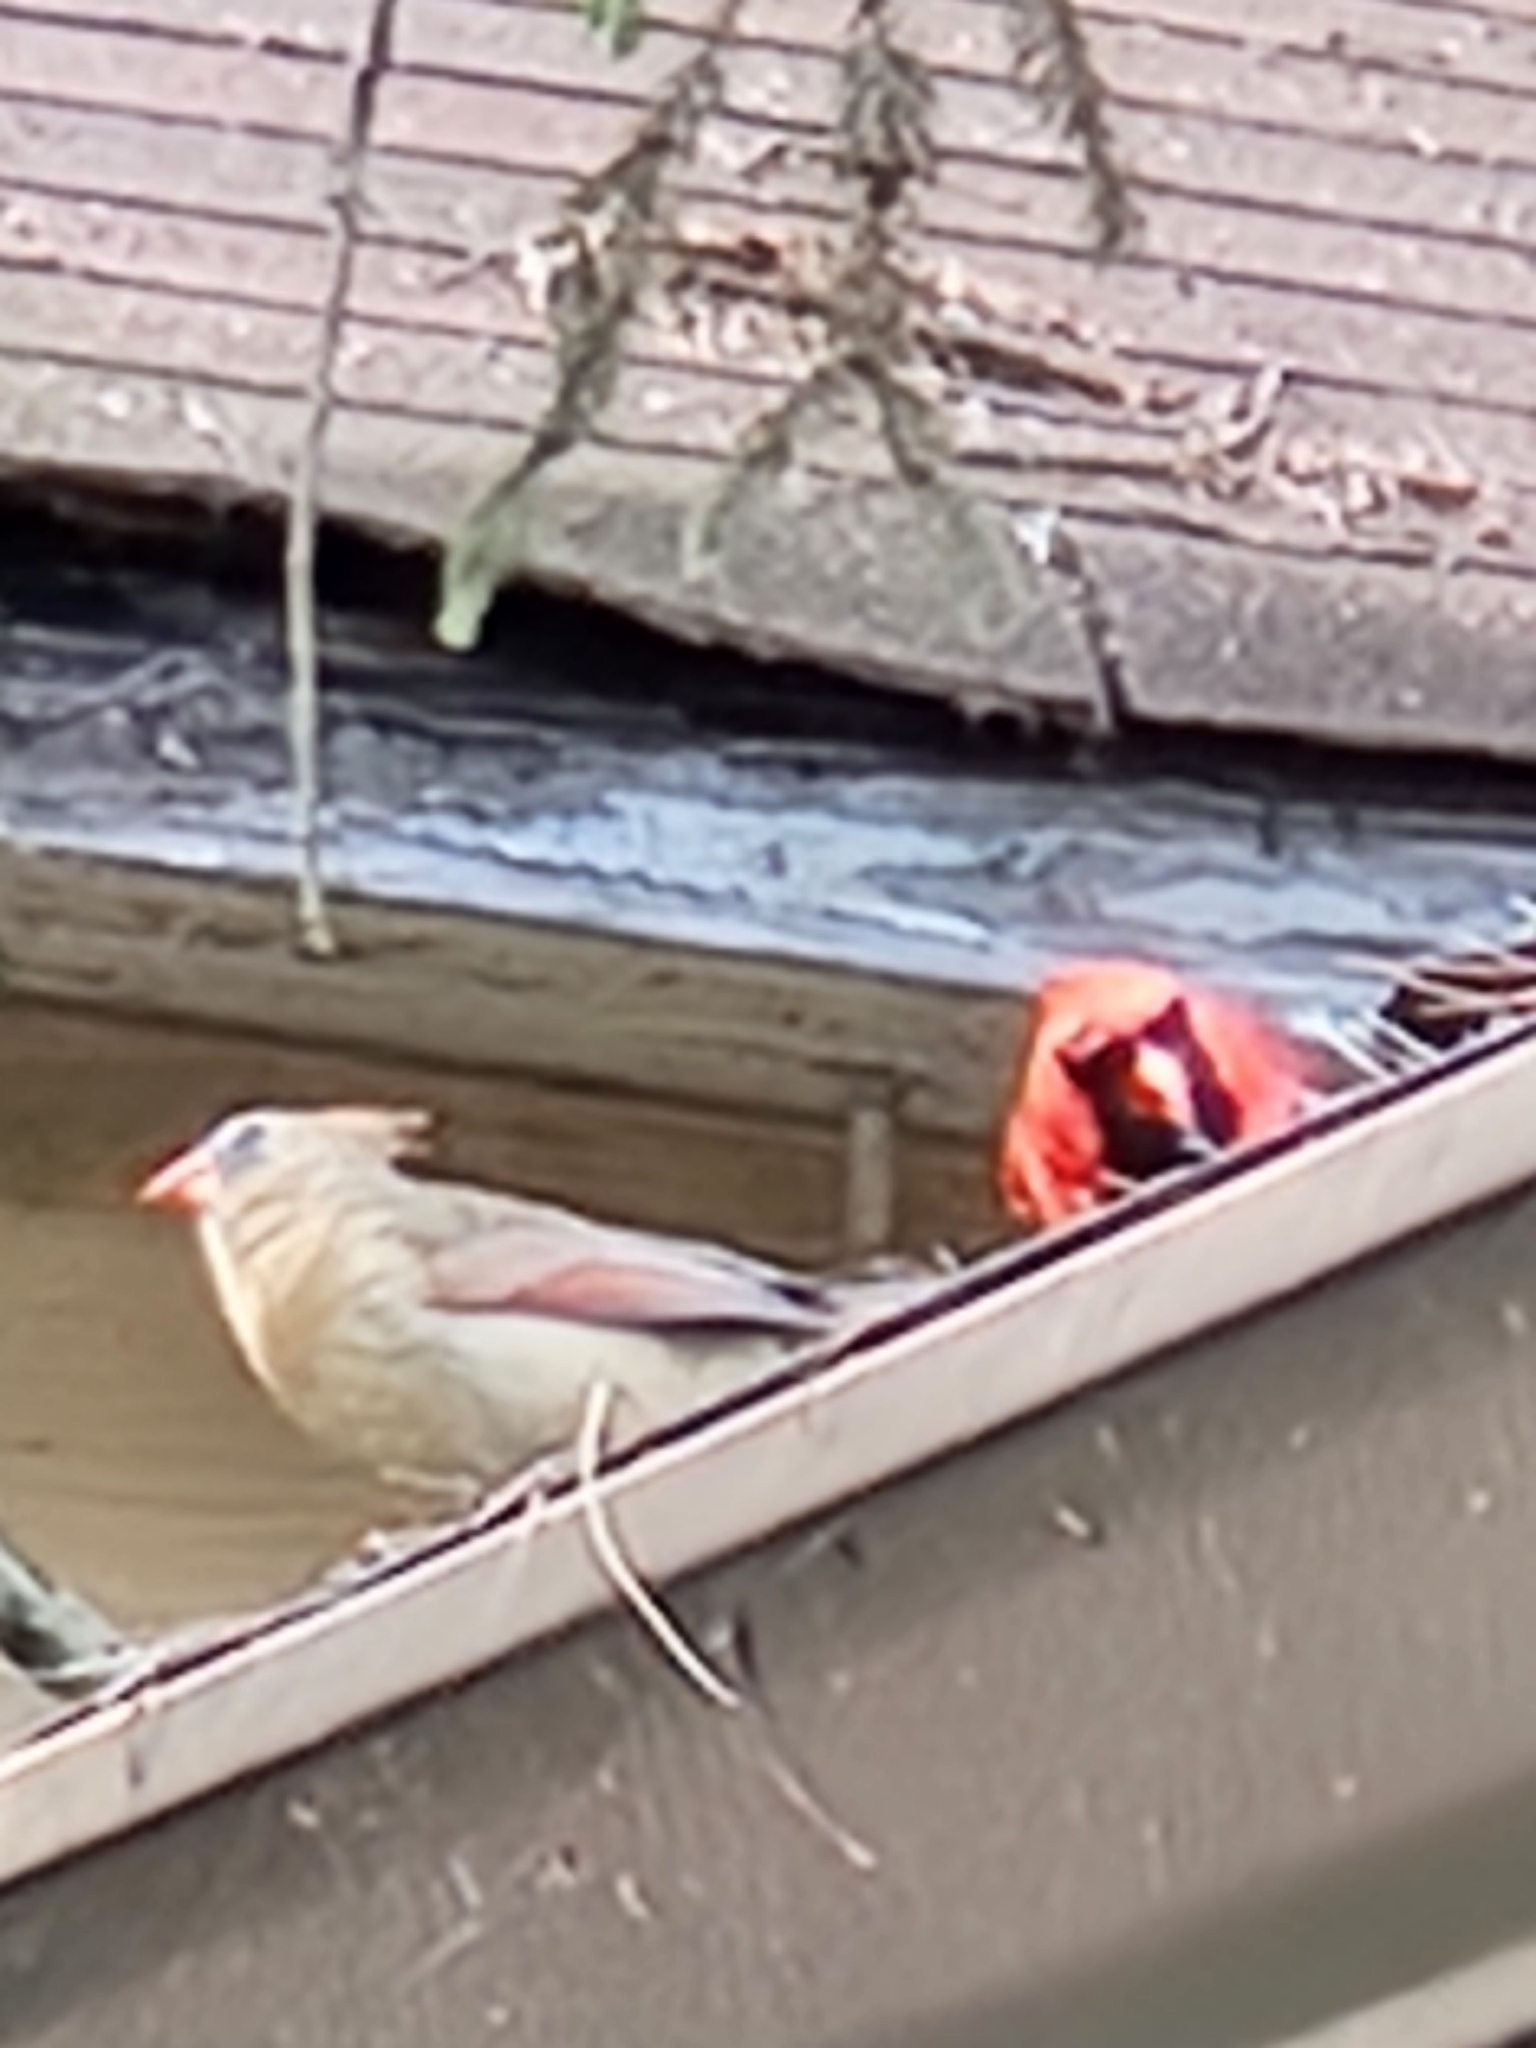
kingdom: Animalia
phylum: Chordata
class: Aves
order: Passeriformes
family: Cardinalidae
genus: Cardinalis
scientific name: Cardinalis cardinalis
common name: Northern cardinal
